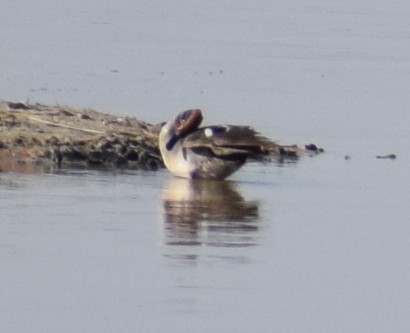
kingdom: Animalia
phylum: Chordata
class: Aves
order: Anseriformes
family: Anatidae
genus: Anas
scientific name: Anas acuta
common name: Northern pintail
